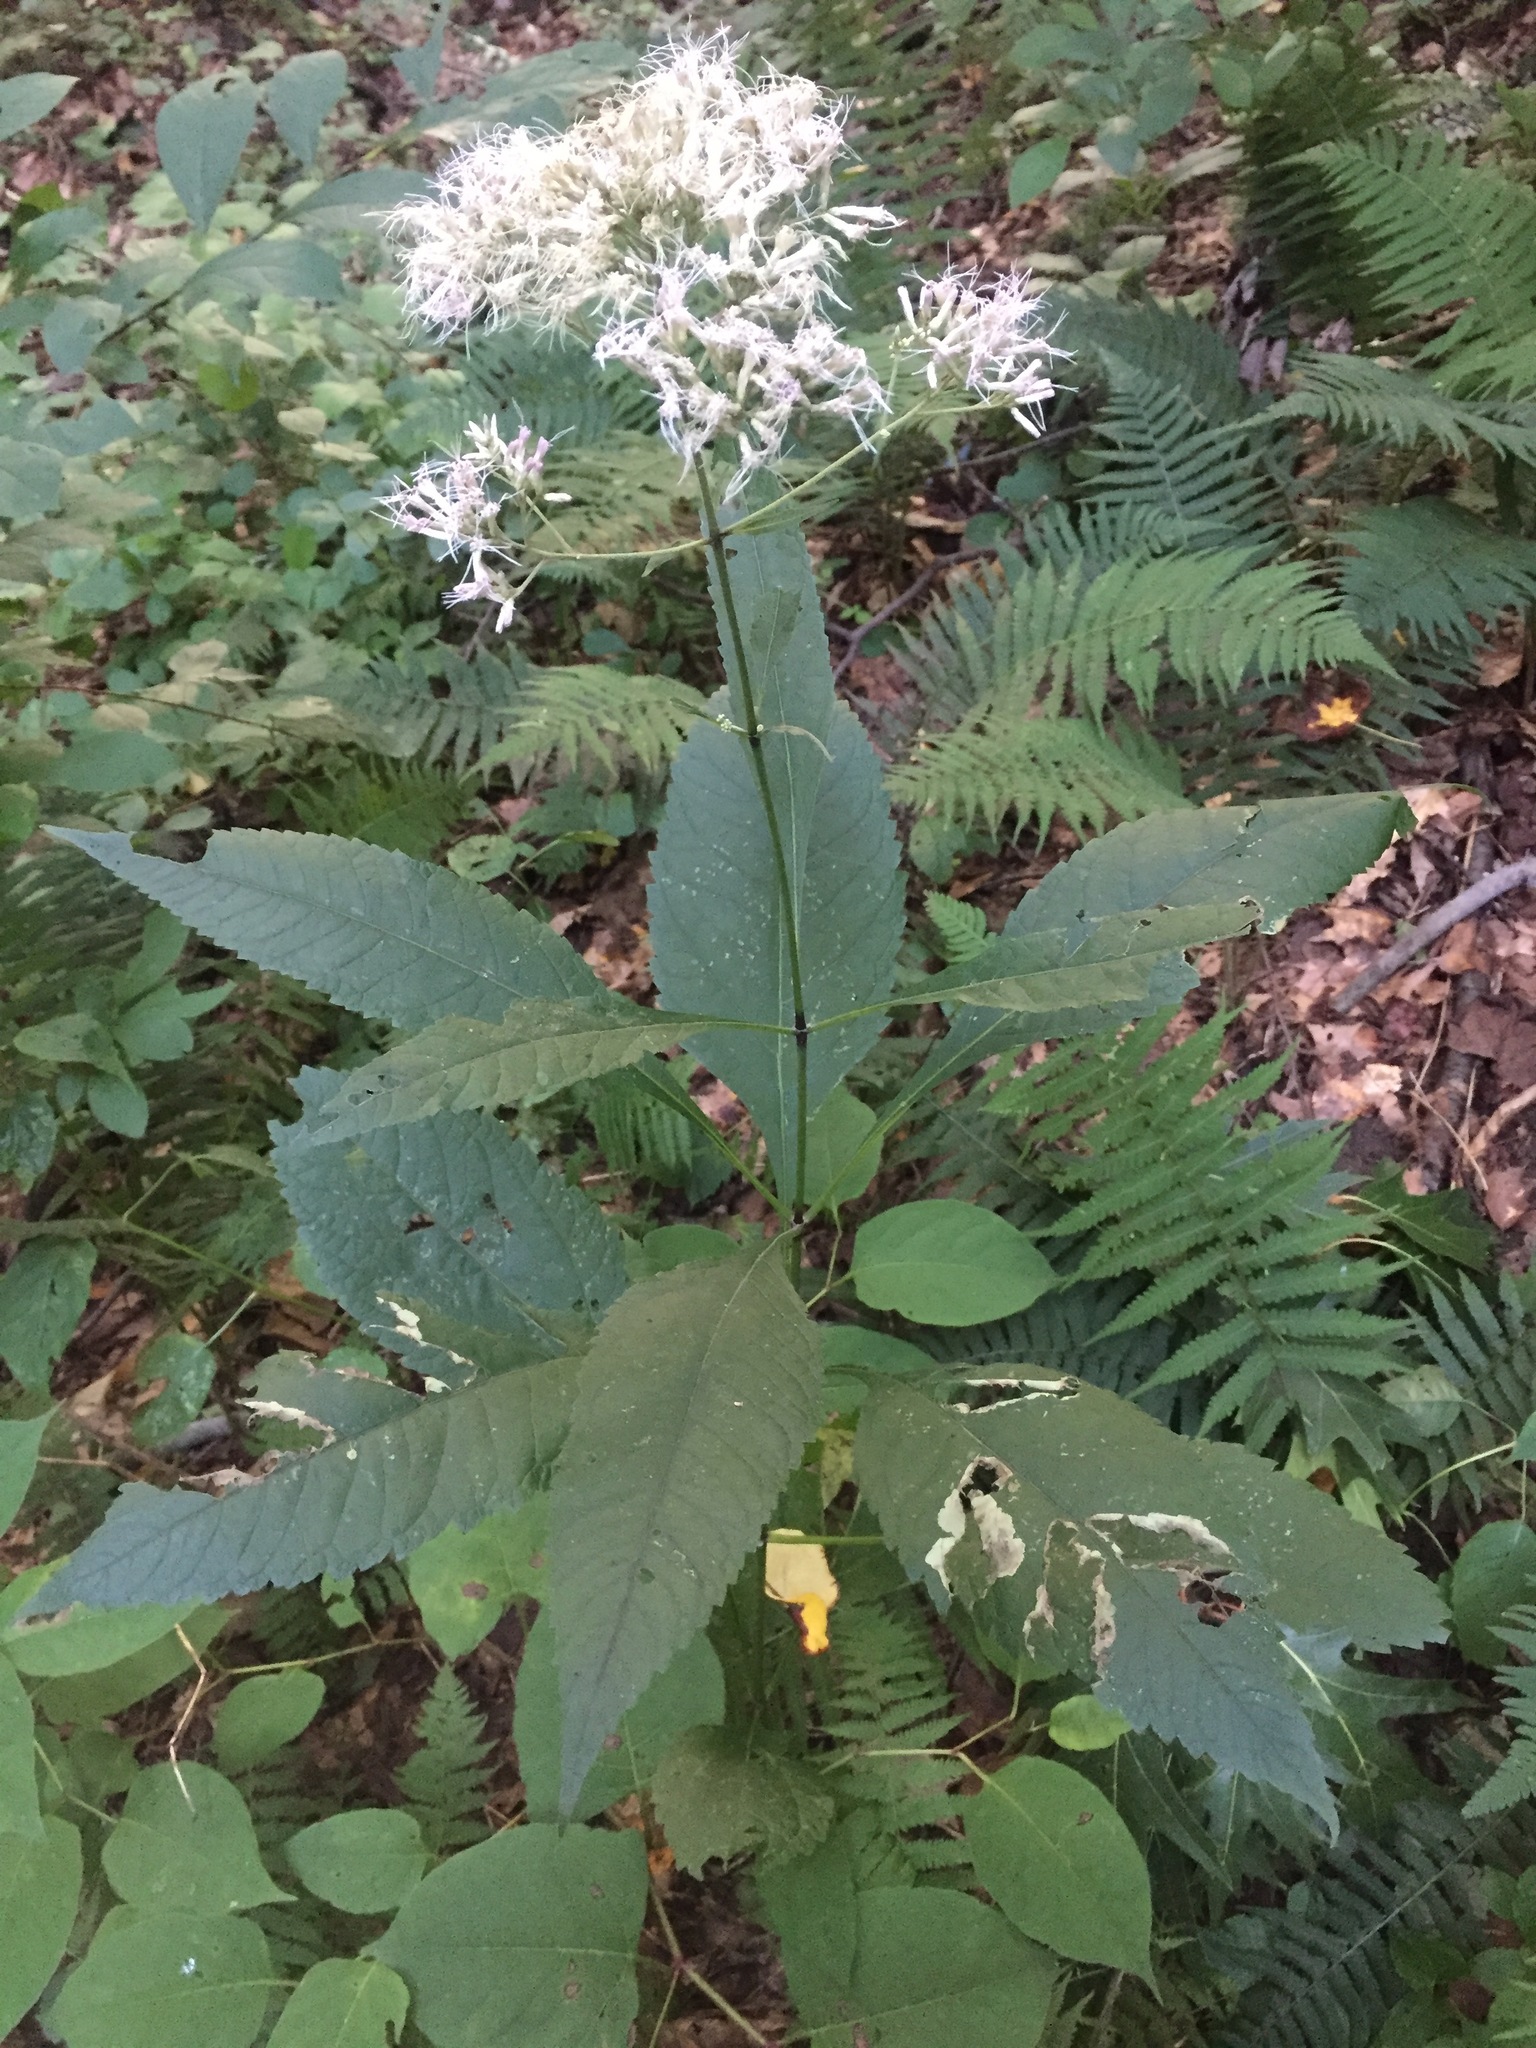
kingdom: Plantae
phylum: Tracheophyta
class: Magnoliopsida
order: Asterales
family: Asteraceae
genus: Eutrochium
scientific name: Eutrochium purpureum
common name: Gravelroot
